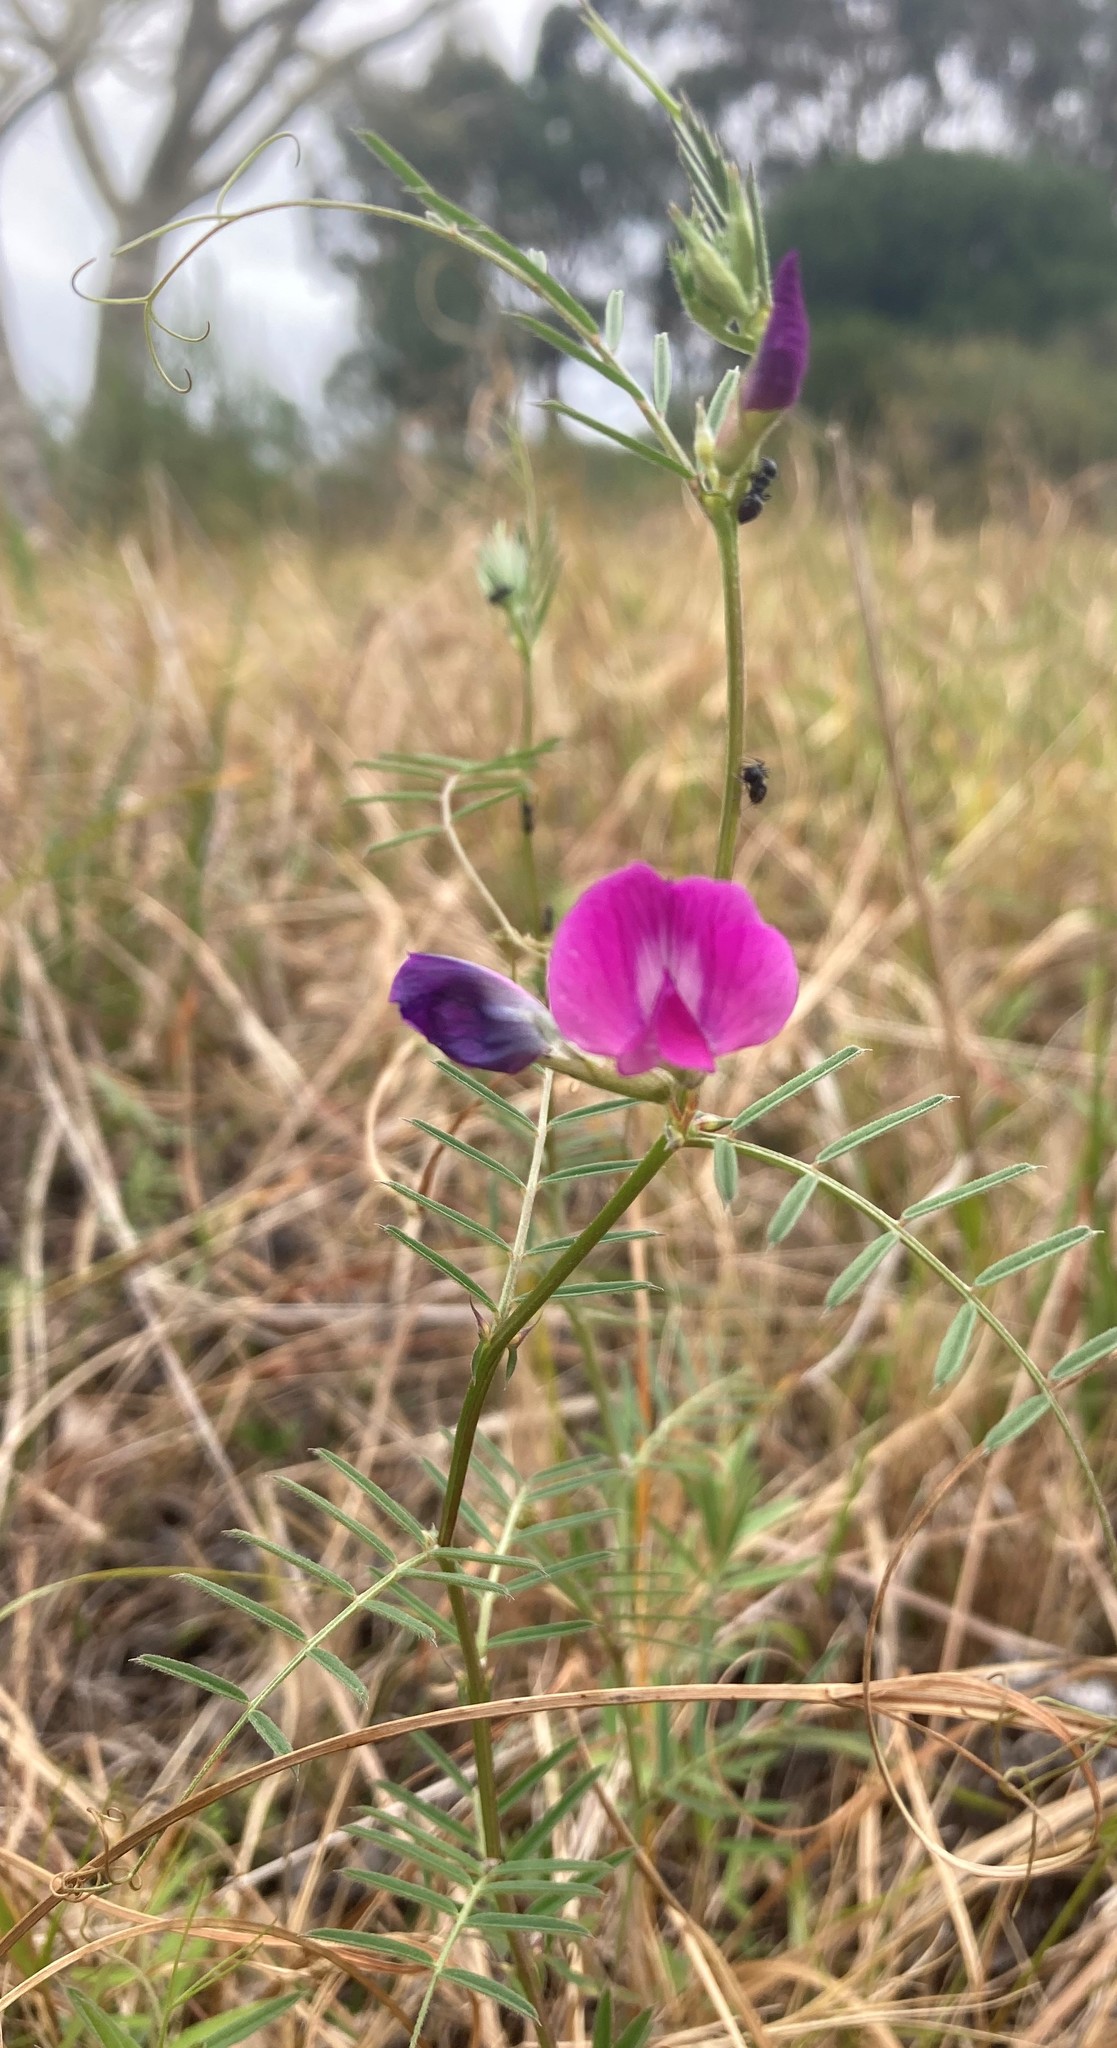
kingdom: Plantae
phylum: Tracheophyta
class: Magnoliopsida
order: Fabales
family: Fabaceae
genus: Vicia
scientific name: Vicia sativa
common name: Garden vetch
